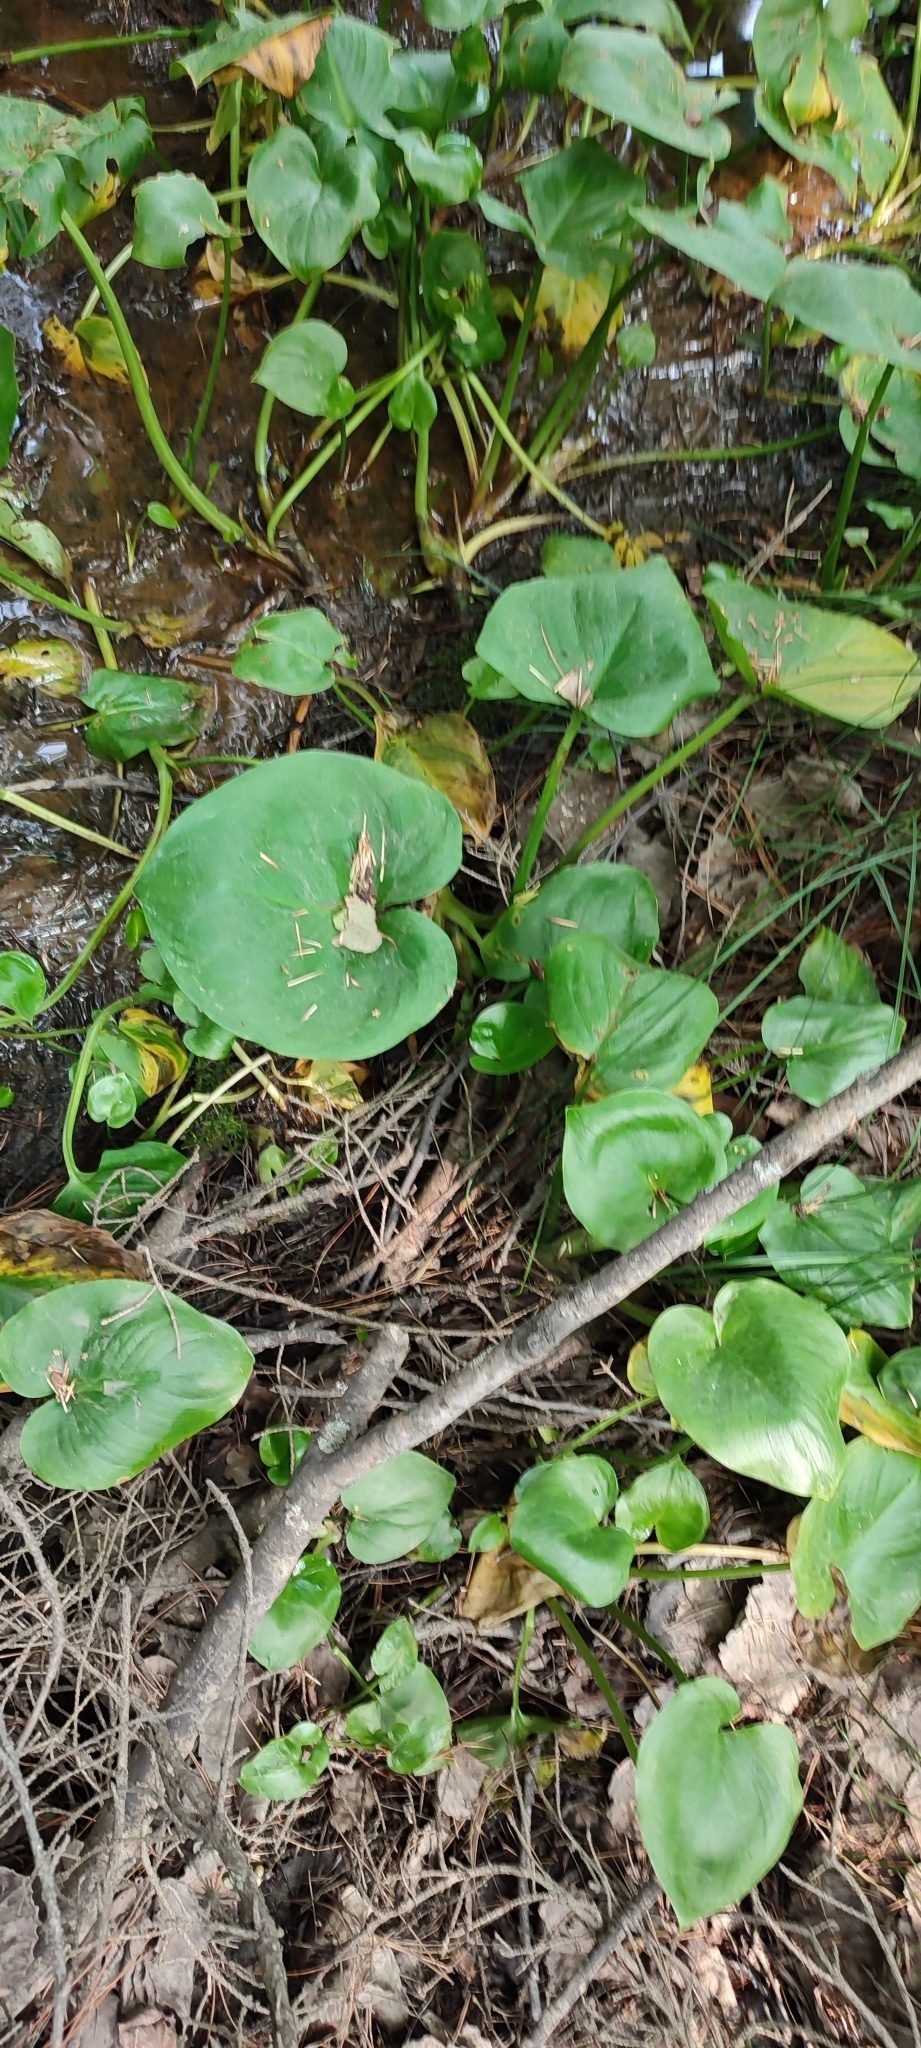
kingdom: Plantae
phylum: Tracheophyta
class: Liliopsida
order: Alismatales
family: Araceae
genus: Calla
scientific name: Calla palustris
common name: Bog arum
